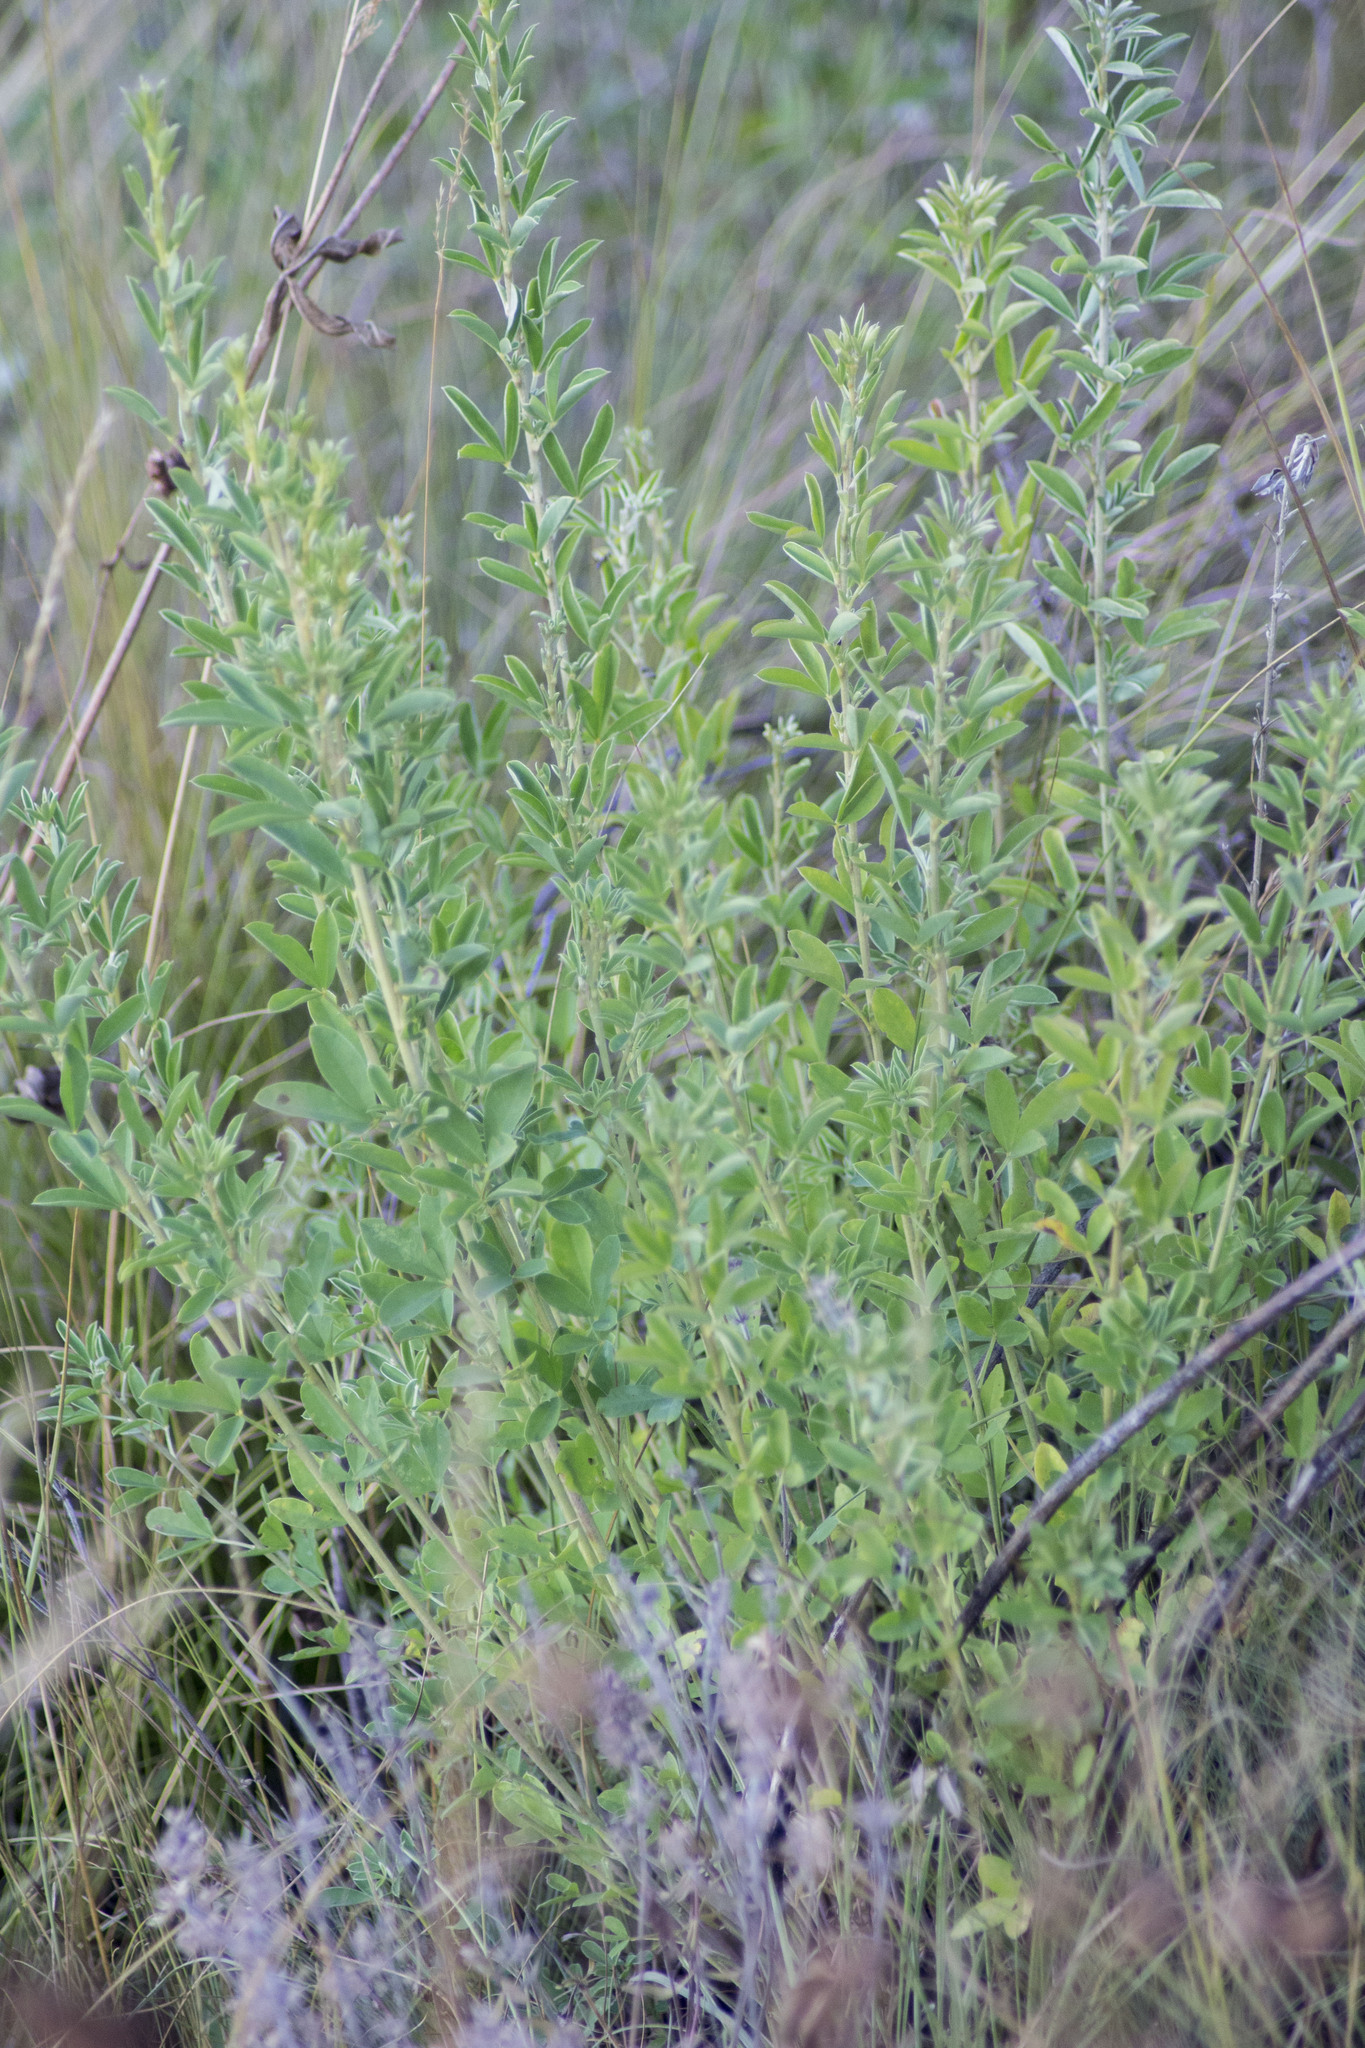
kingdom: Plantae
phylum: Tracheophyta
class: Magnoliopsida
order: Fabales
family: Fabaceae
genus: Chamaecytisus
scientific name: Chamaecytisus ruthenicus
